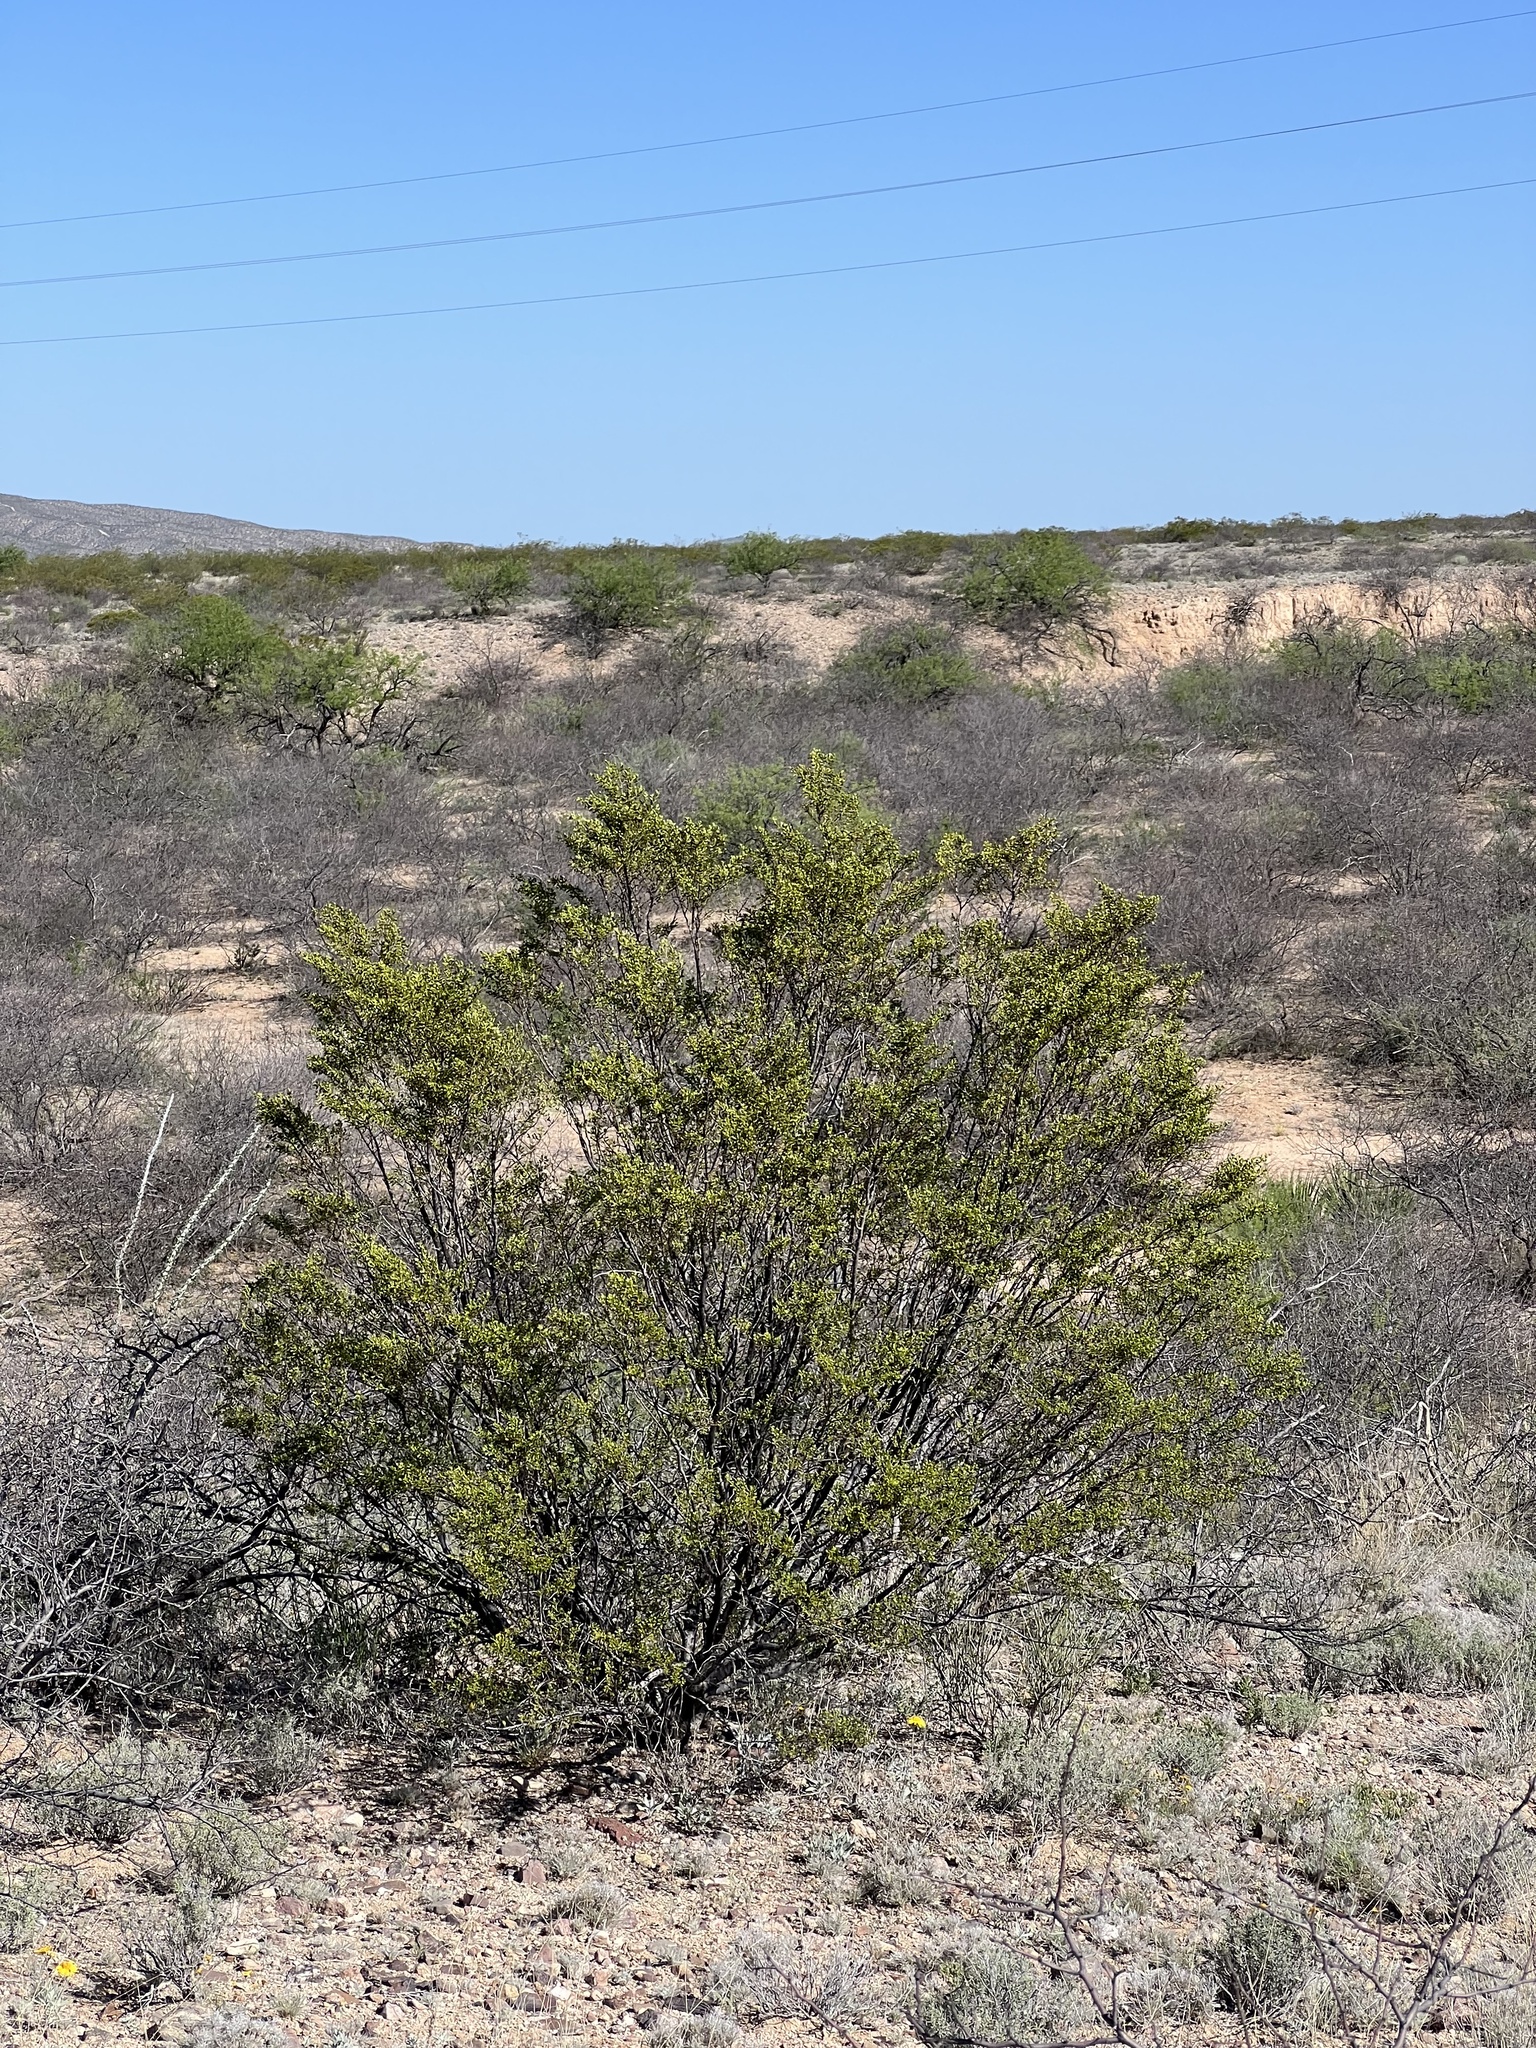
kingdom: Plantae
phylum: Tracheophyta
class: Magnoliopsida
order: Zygophyllales
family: Zygophyllaceae
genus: Larrea
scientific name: Larrea tridentata
